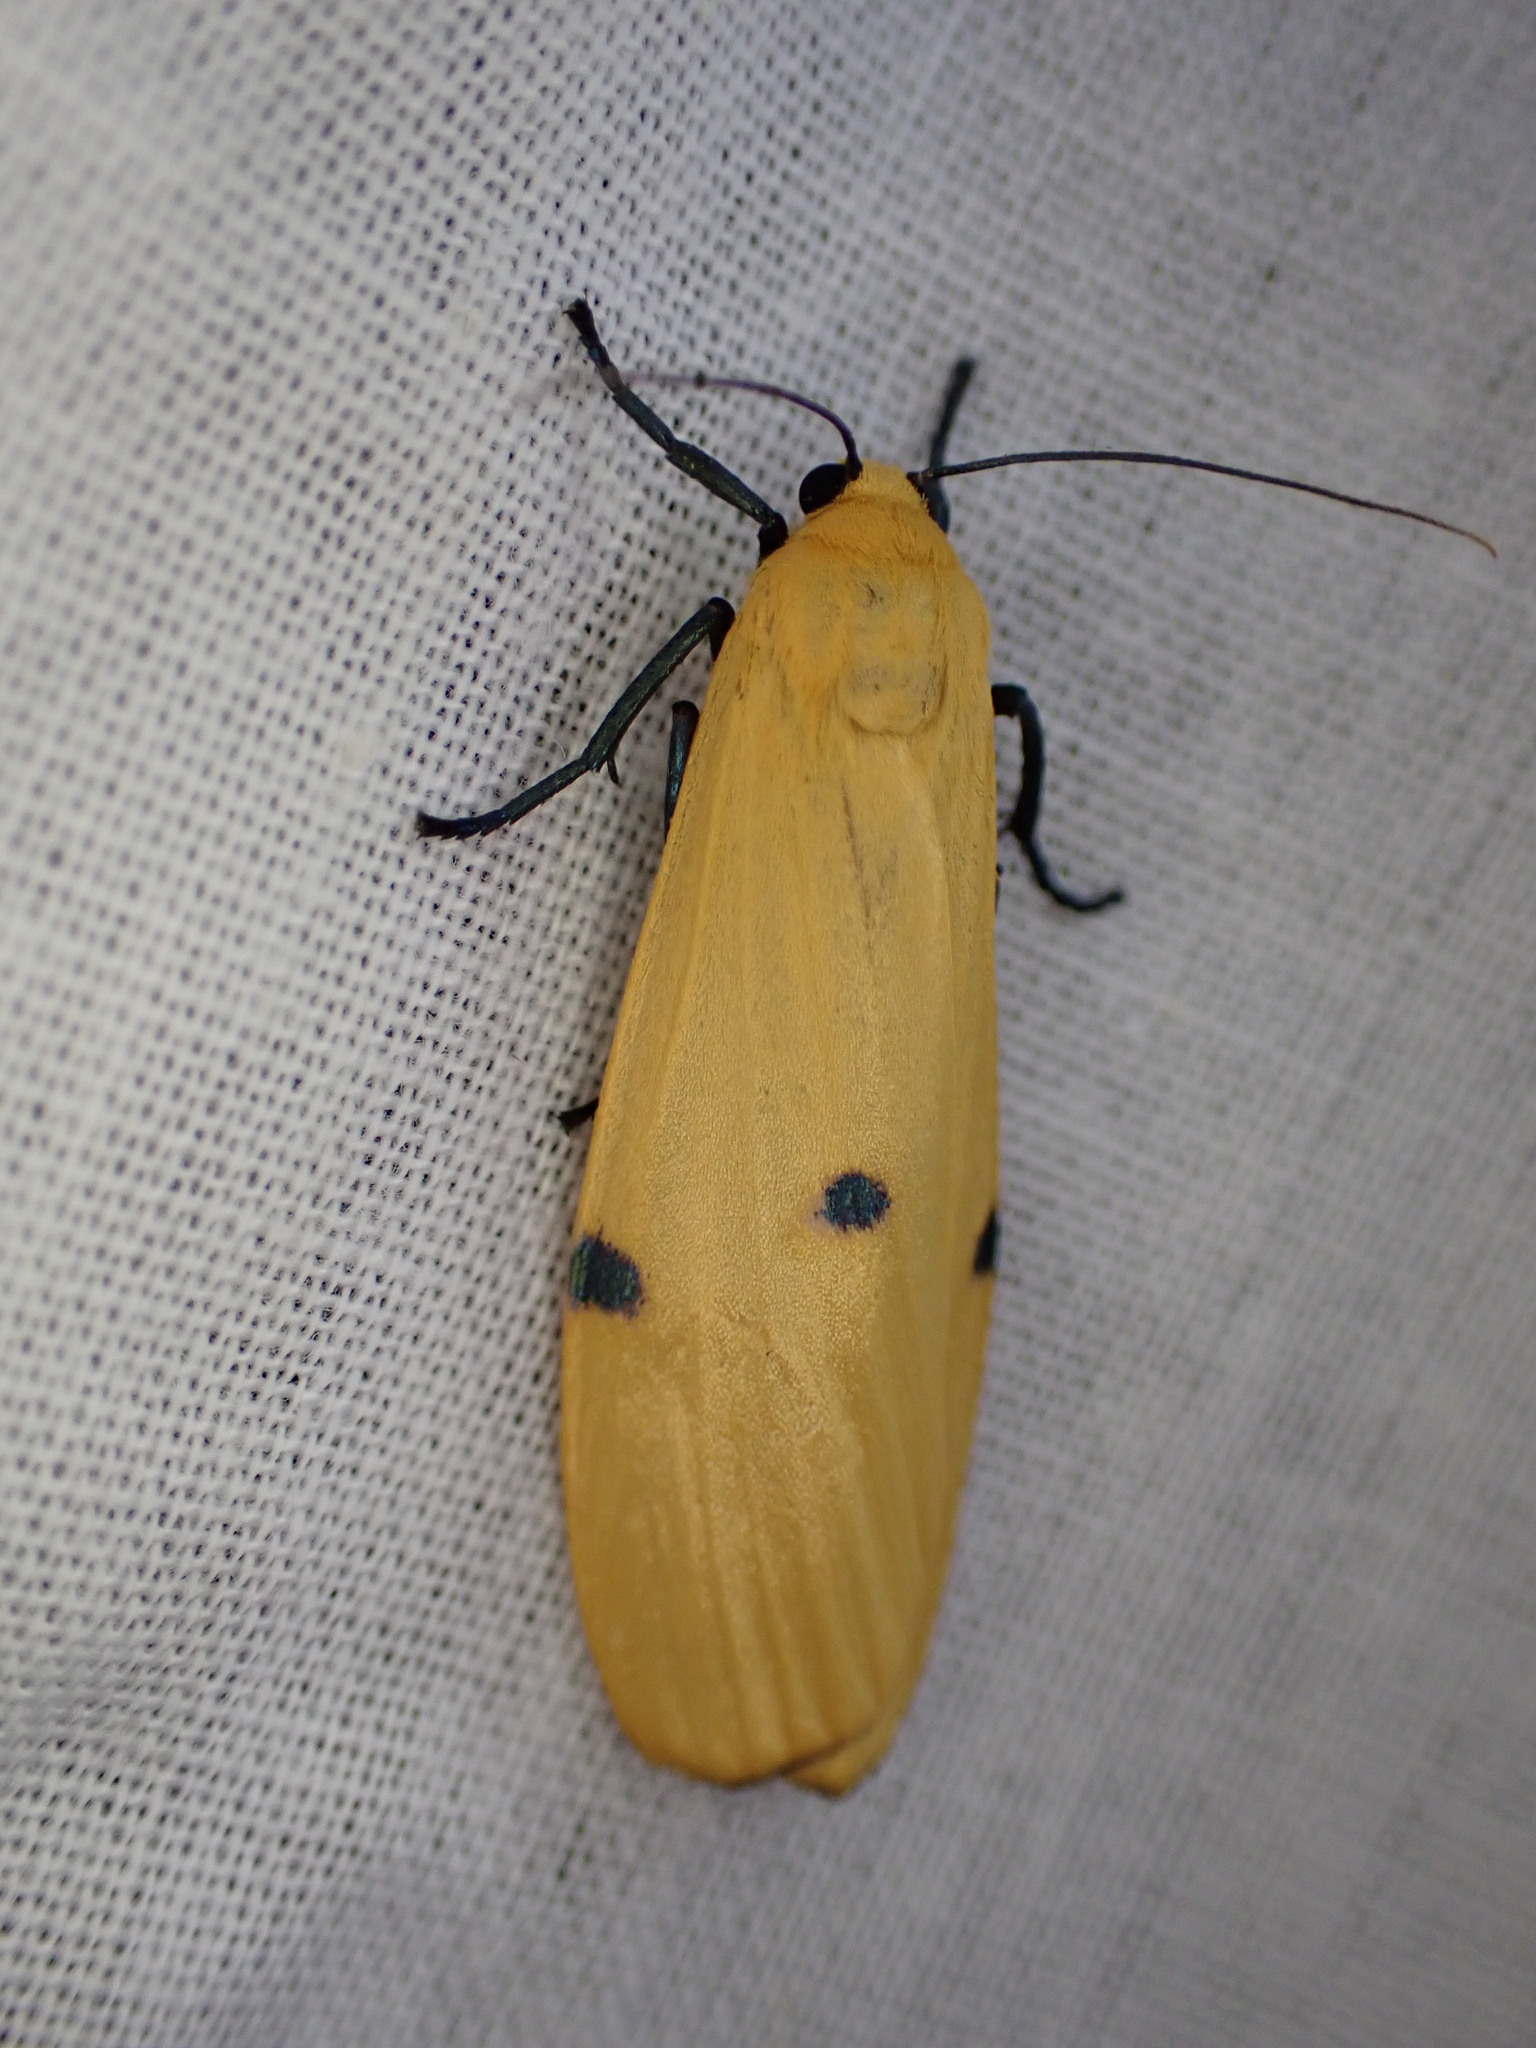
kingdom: Animalia
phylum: Arthropoda
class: Insecta
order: Lepidoptera
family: Erebidae
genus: Lithosia
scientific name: Lithosia quadra
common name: Four-spotted footman
